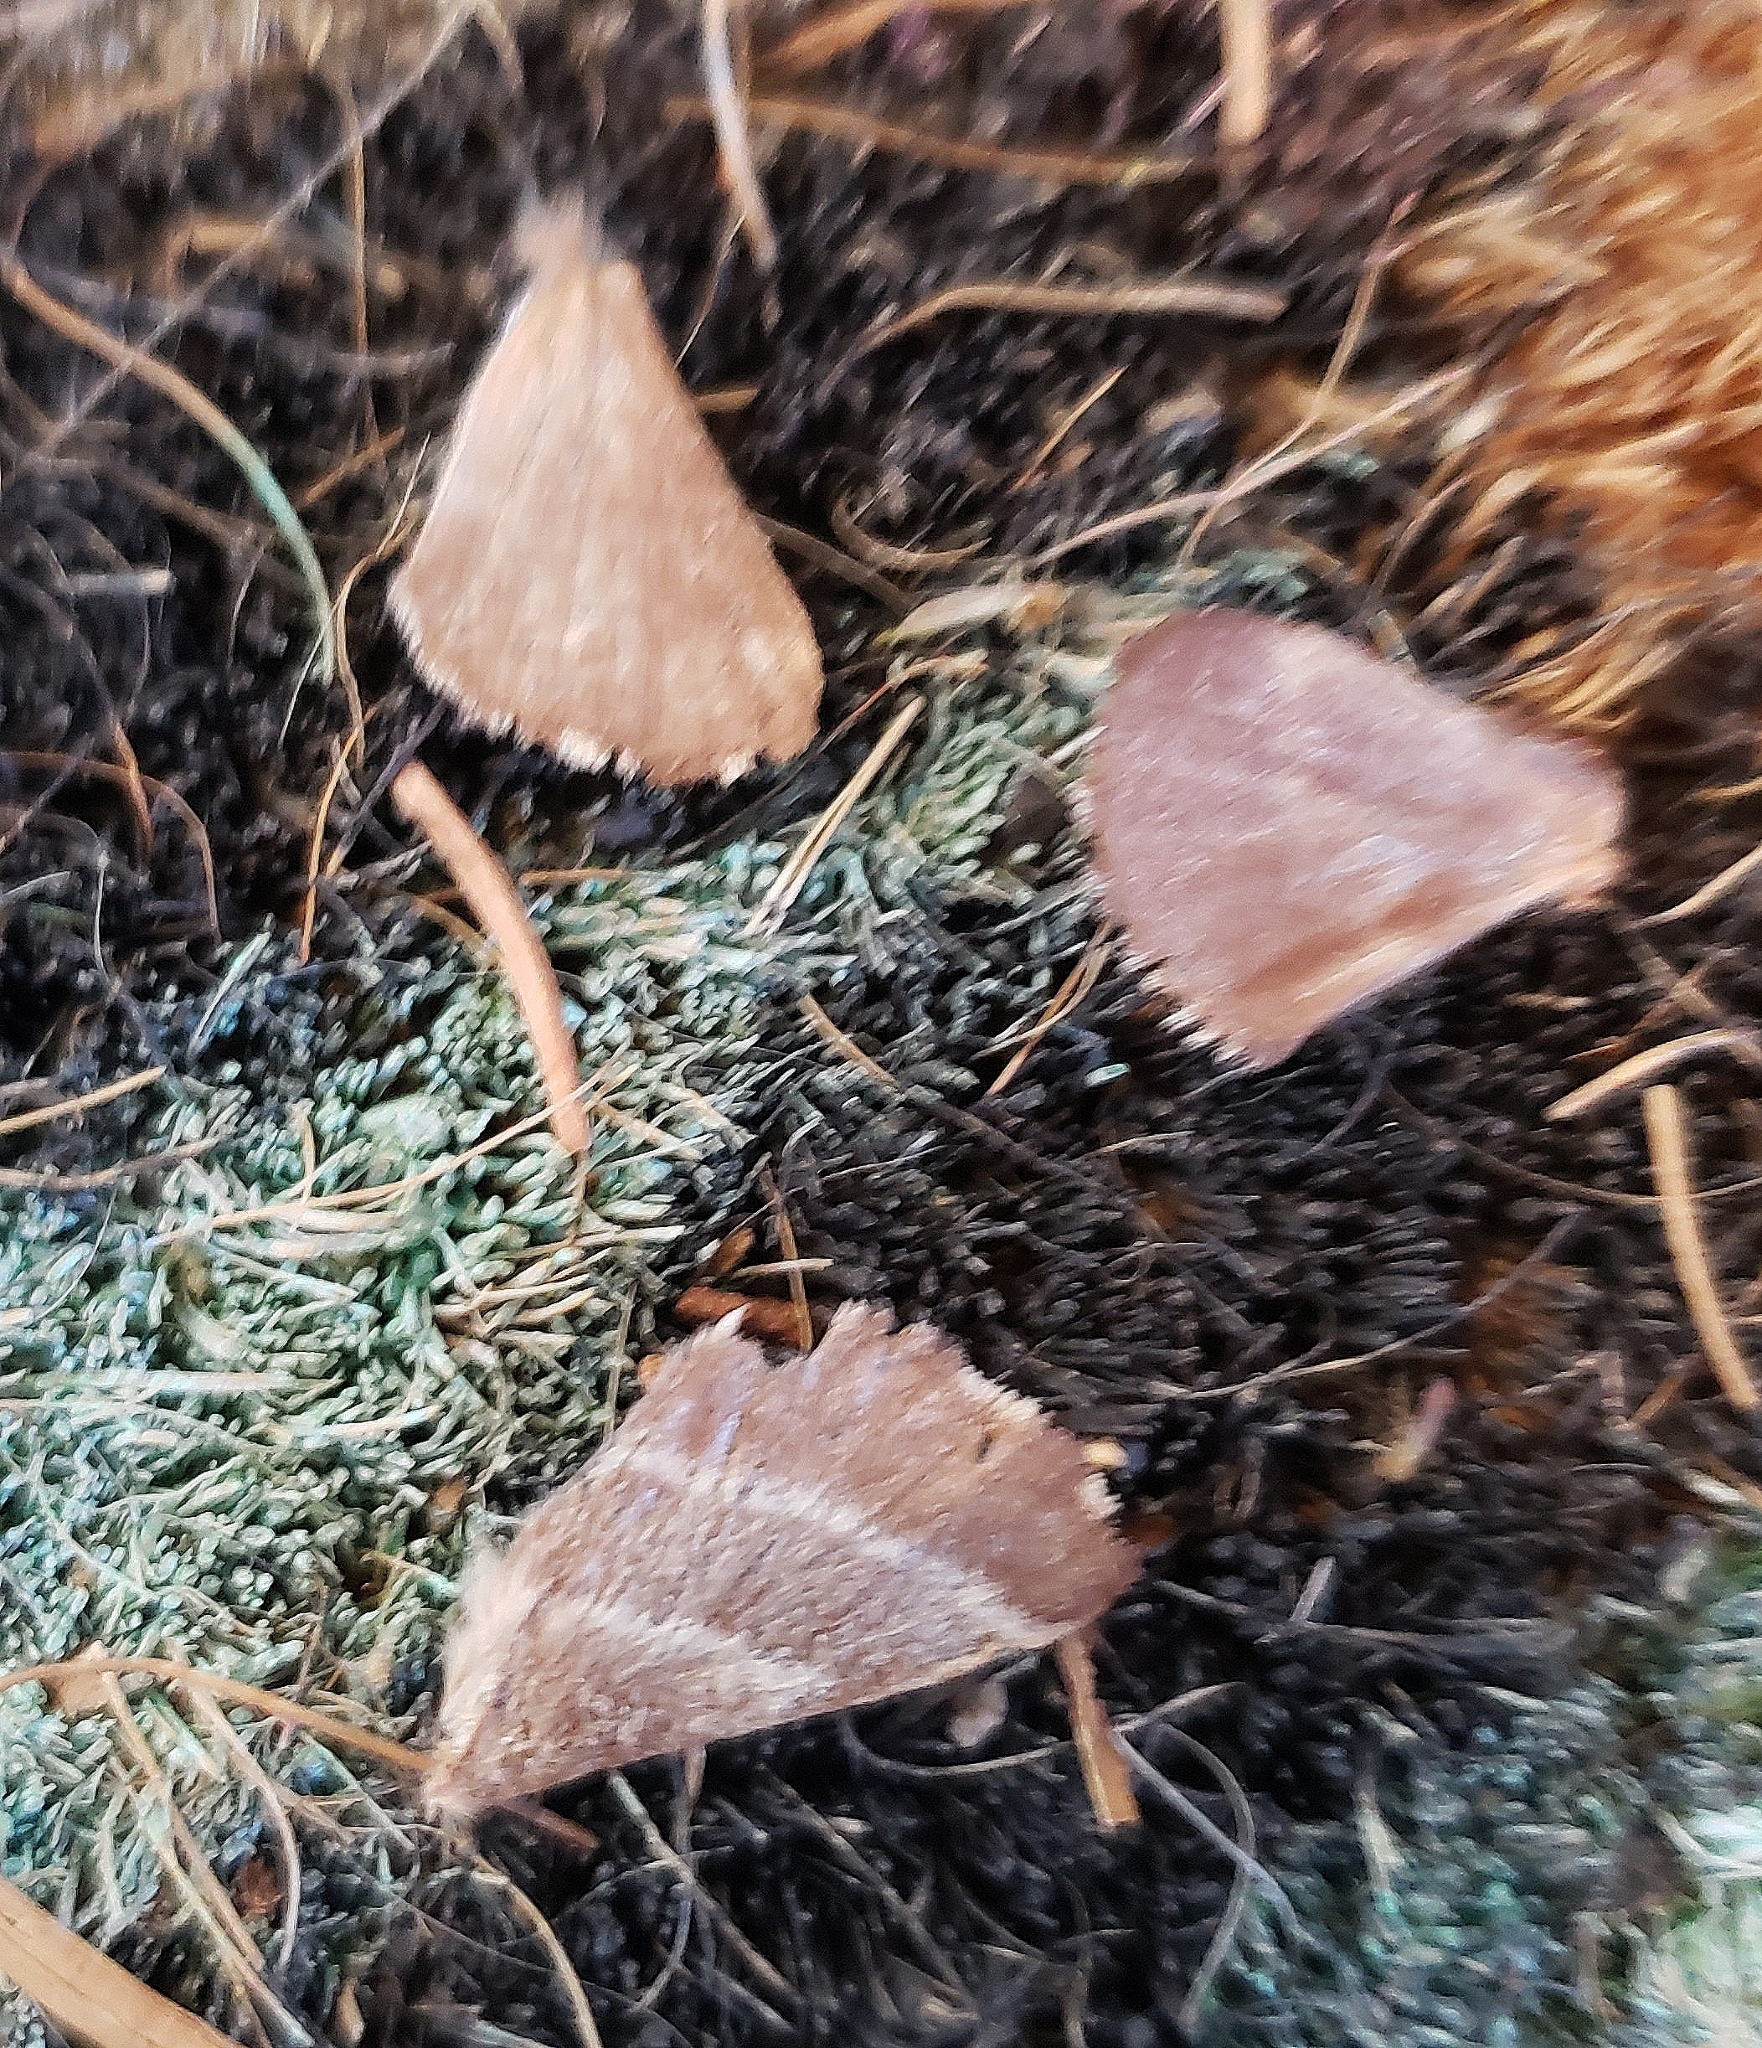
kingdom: Animalia
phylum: Arthropoda
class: Insecta
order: Lepidoptera
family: Lasiocampidae
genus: Malacosoma
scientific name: Malacosoma americana
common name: Eastern tent caterpillar moth
